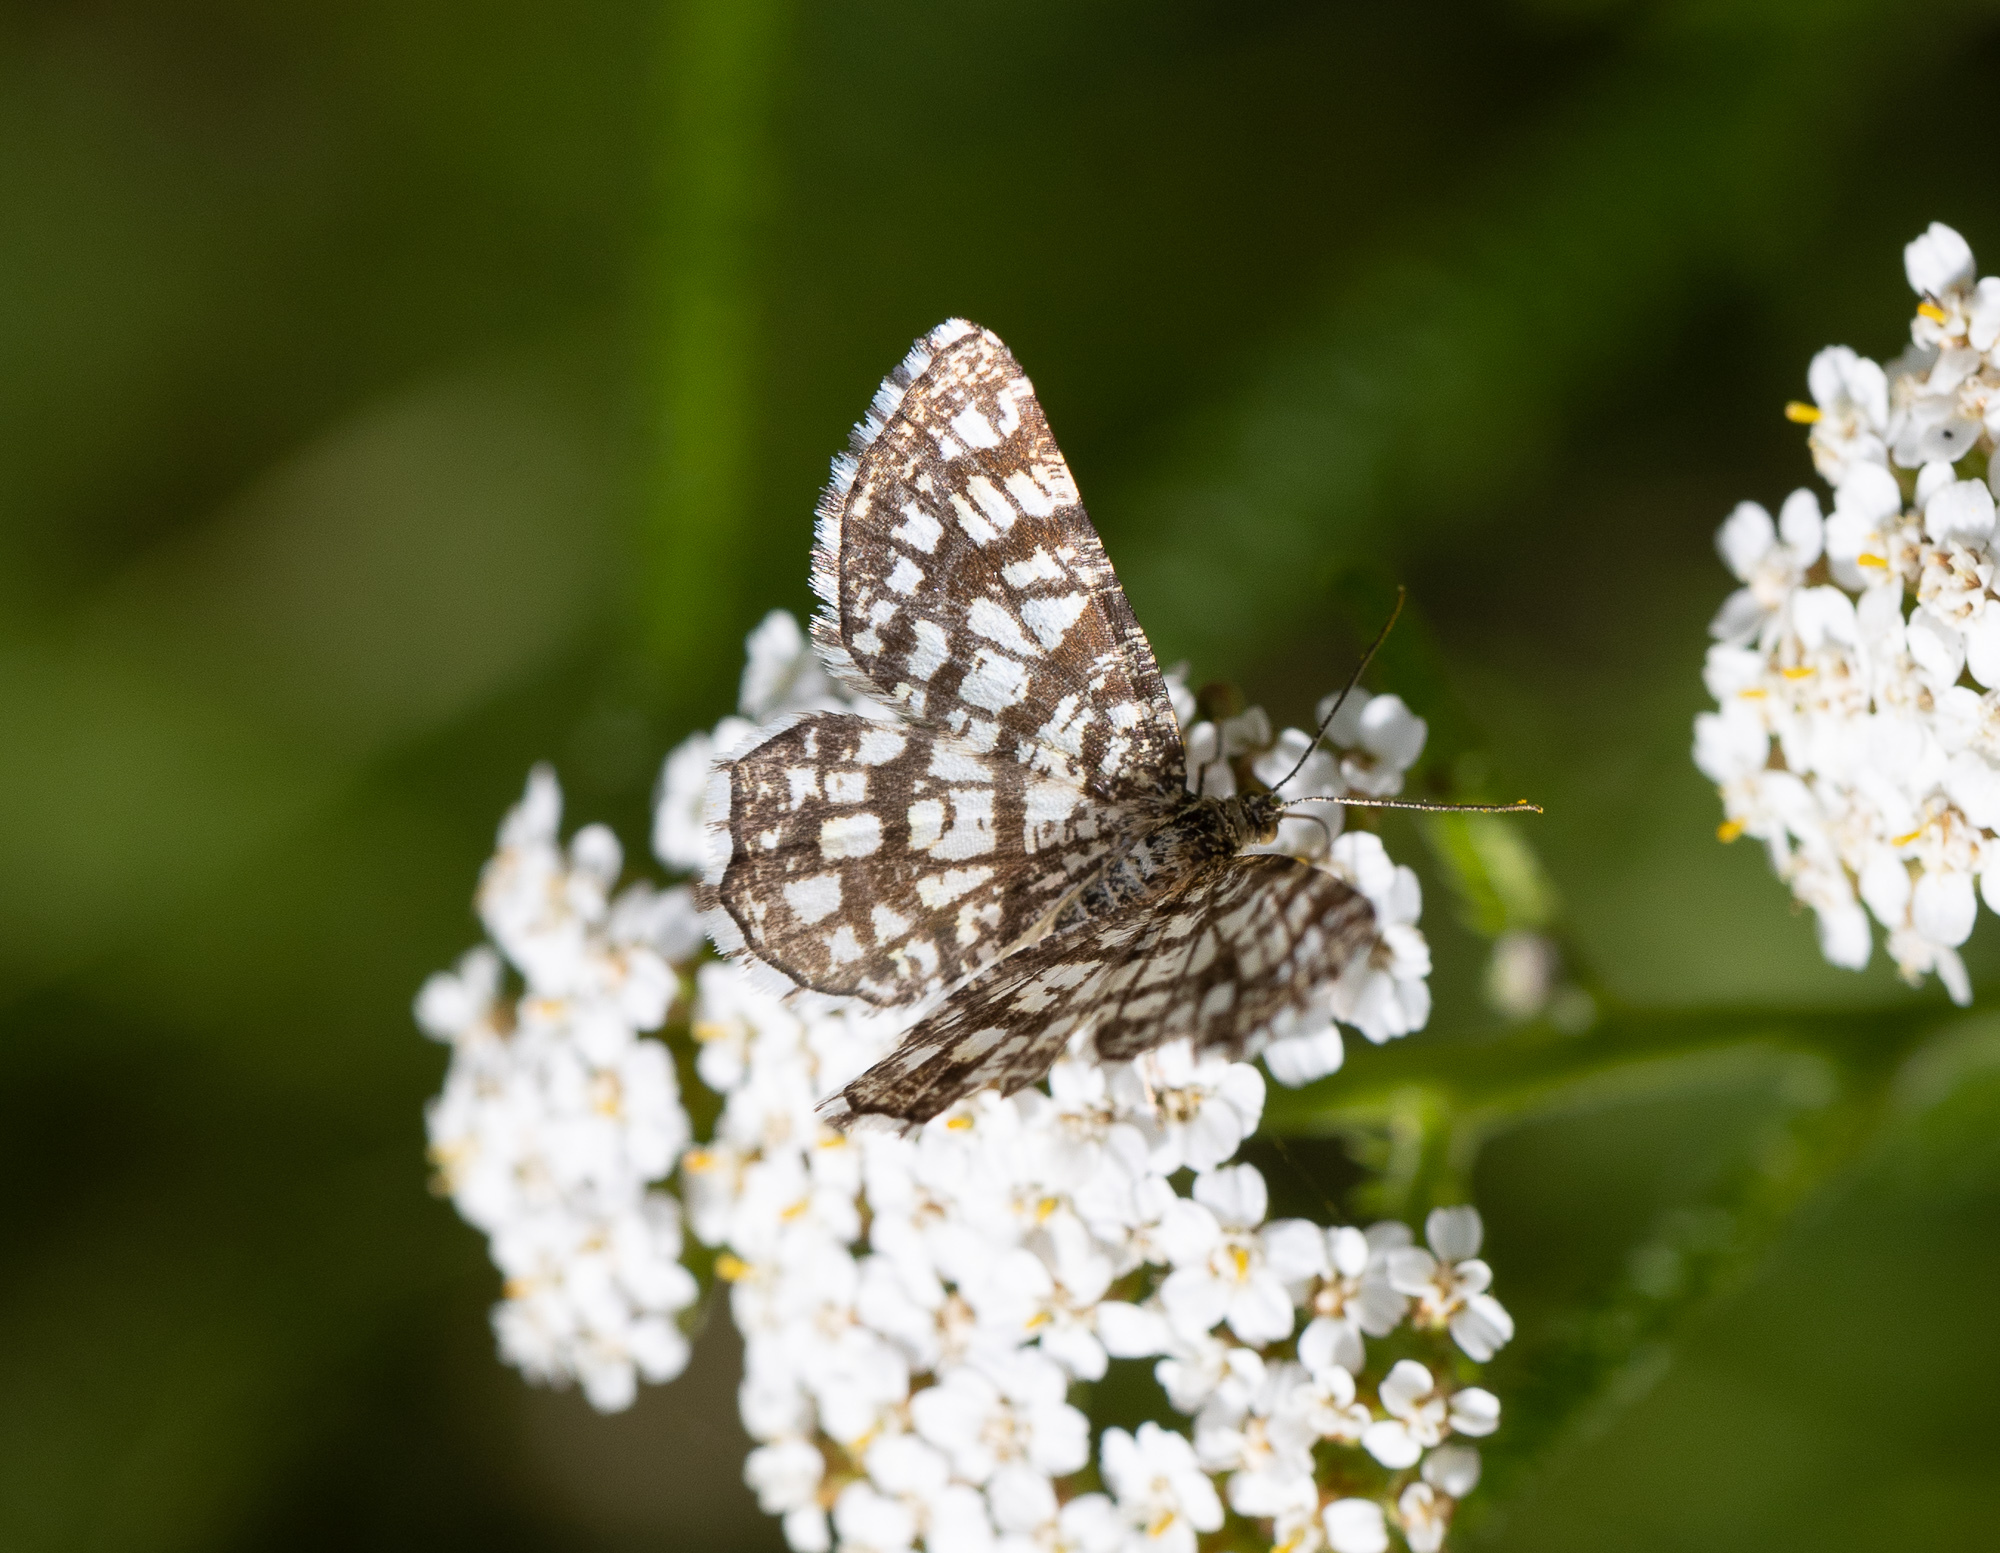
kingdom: Animalia
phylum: Arthropoda
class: Insecta
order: Lepidoptera
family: Geometridae
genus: Chiasmia
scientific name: Chiasmia clathrata
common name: Latticed heath
